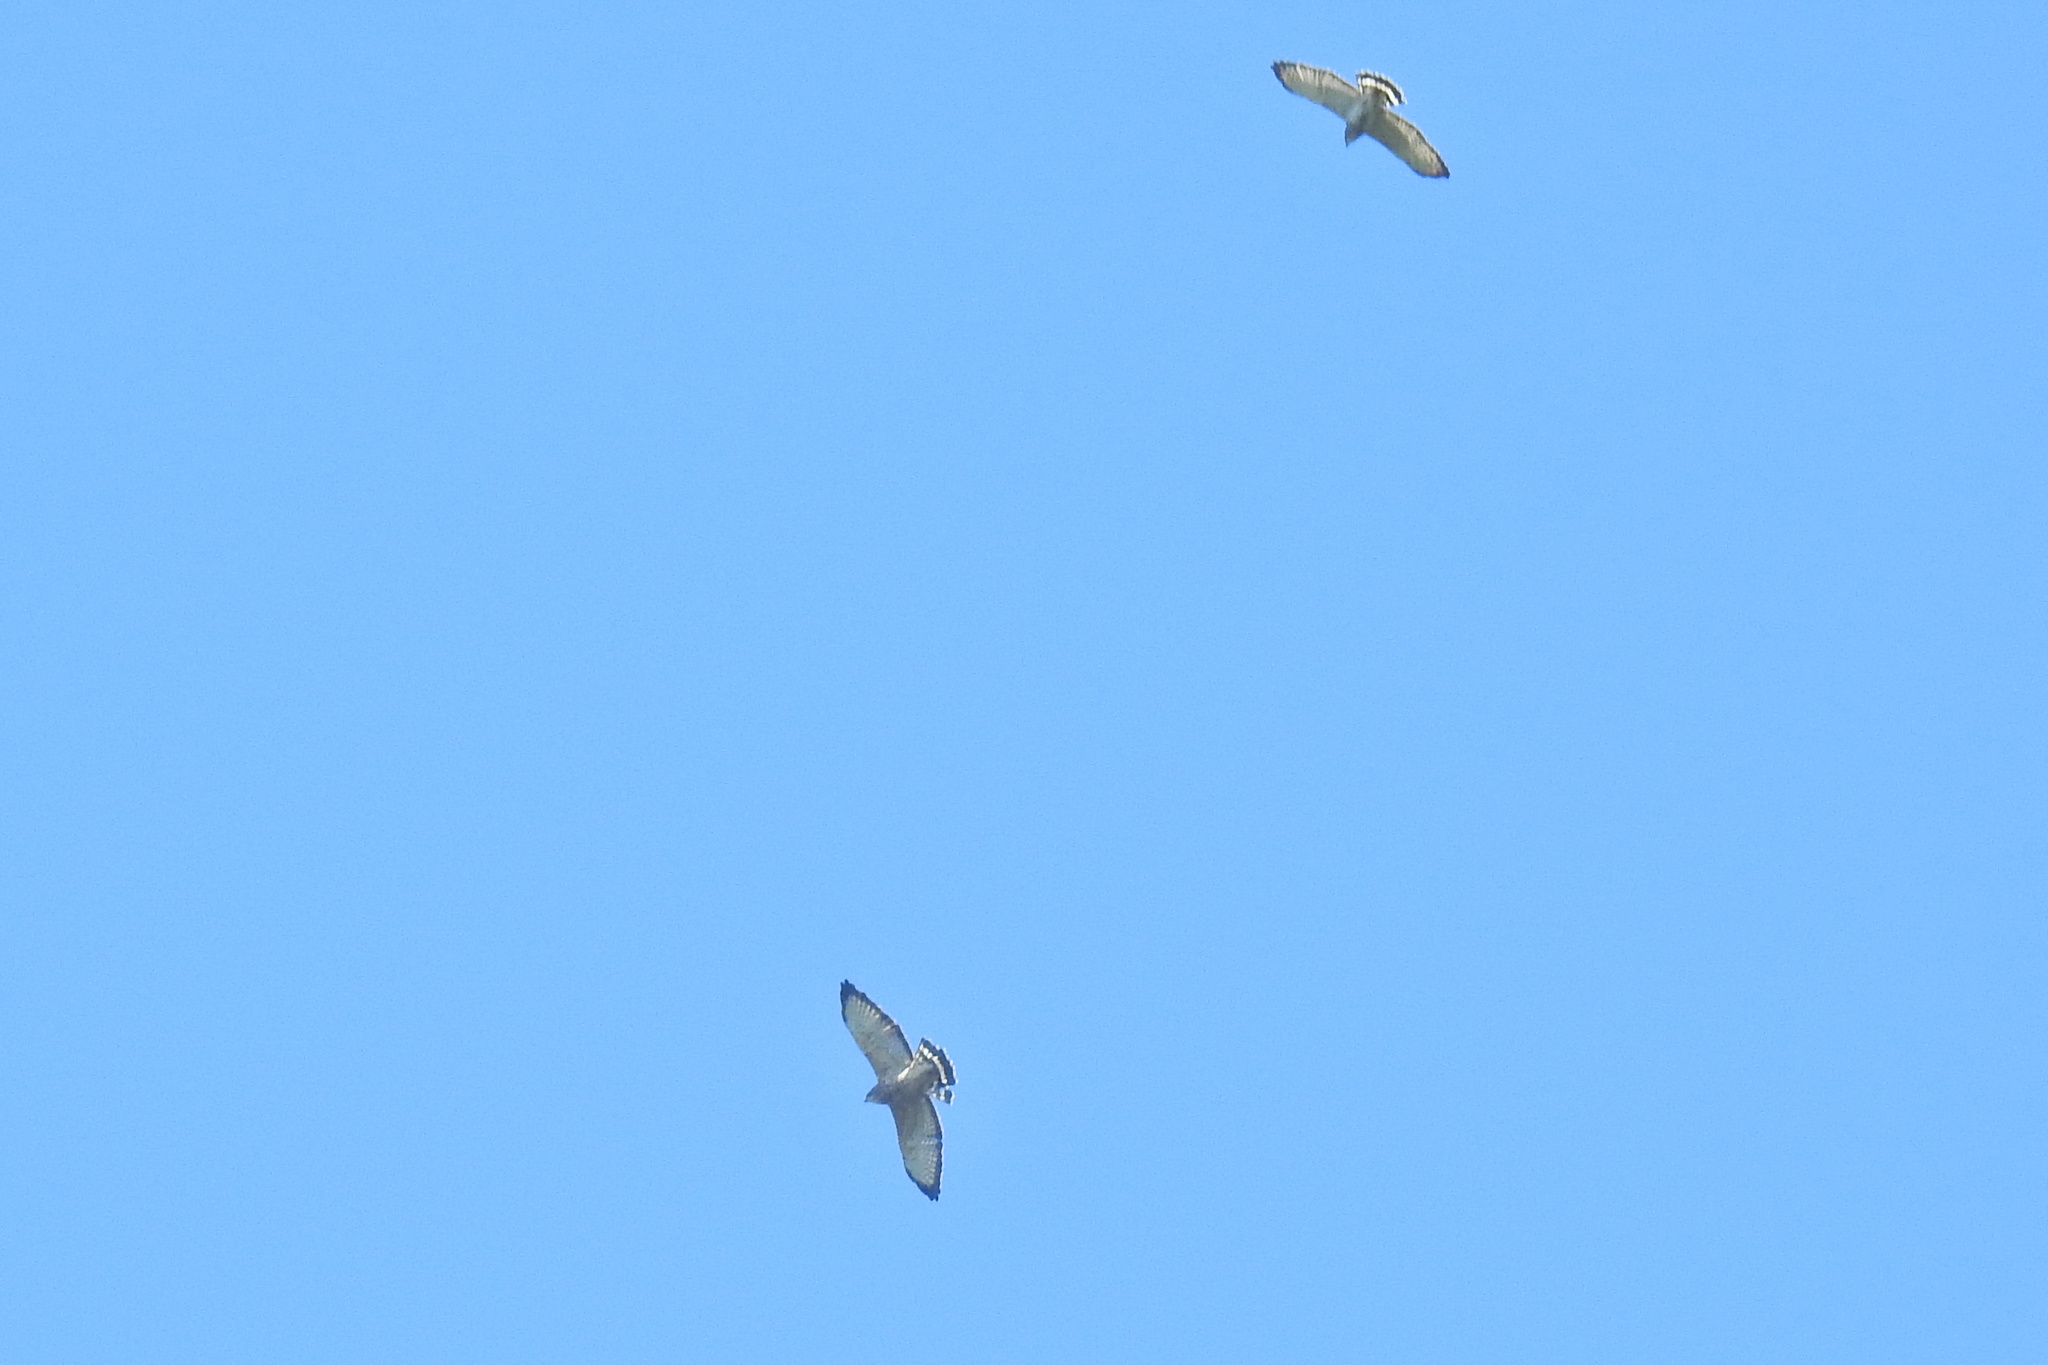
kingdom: Animalia
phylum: Chordata
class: Aves
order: Accipitriformes
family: Accipitridae
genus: Buteo
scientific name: Buteo platypterus
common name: Broad-winged hawk
